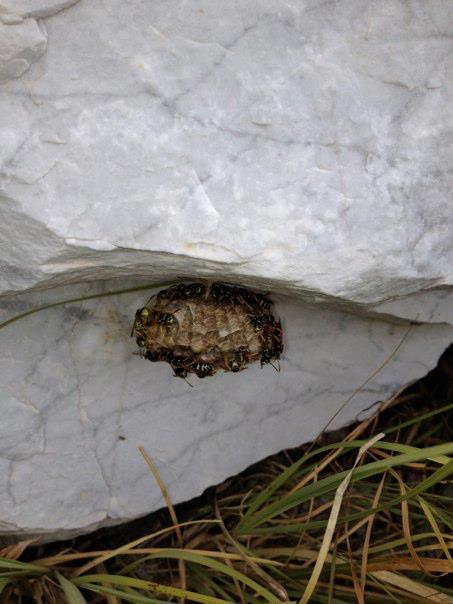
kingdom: Animalia
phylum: Arthropoda
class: Insecta
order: Hymenoptera
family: Eumenidae
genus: Polistes
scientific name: Polistes biglumis
